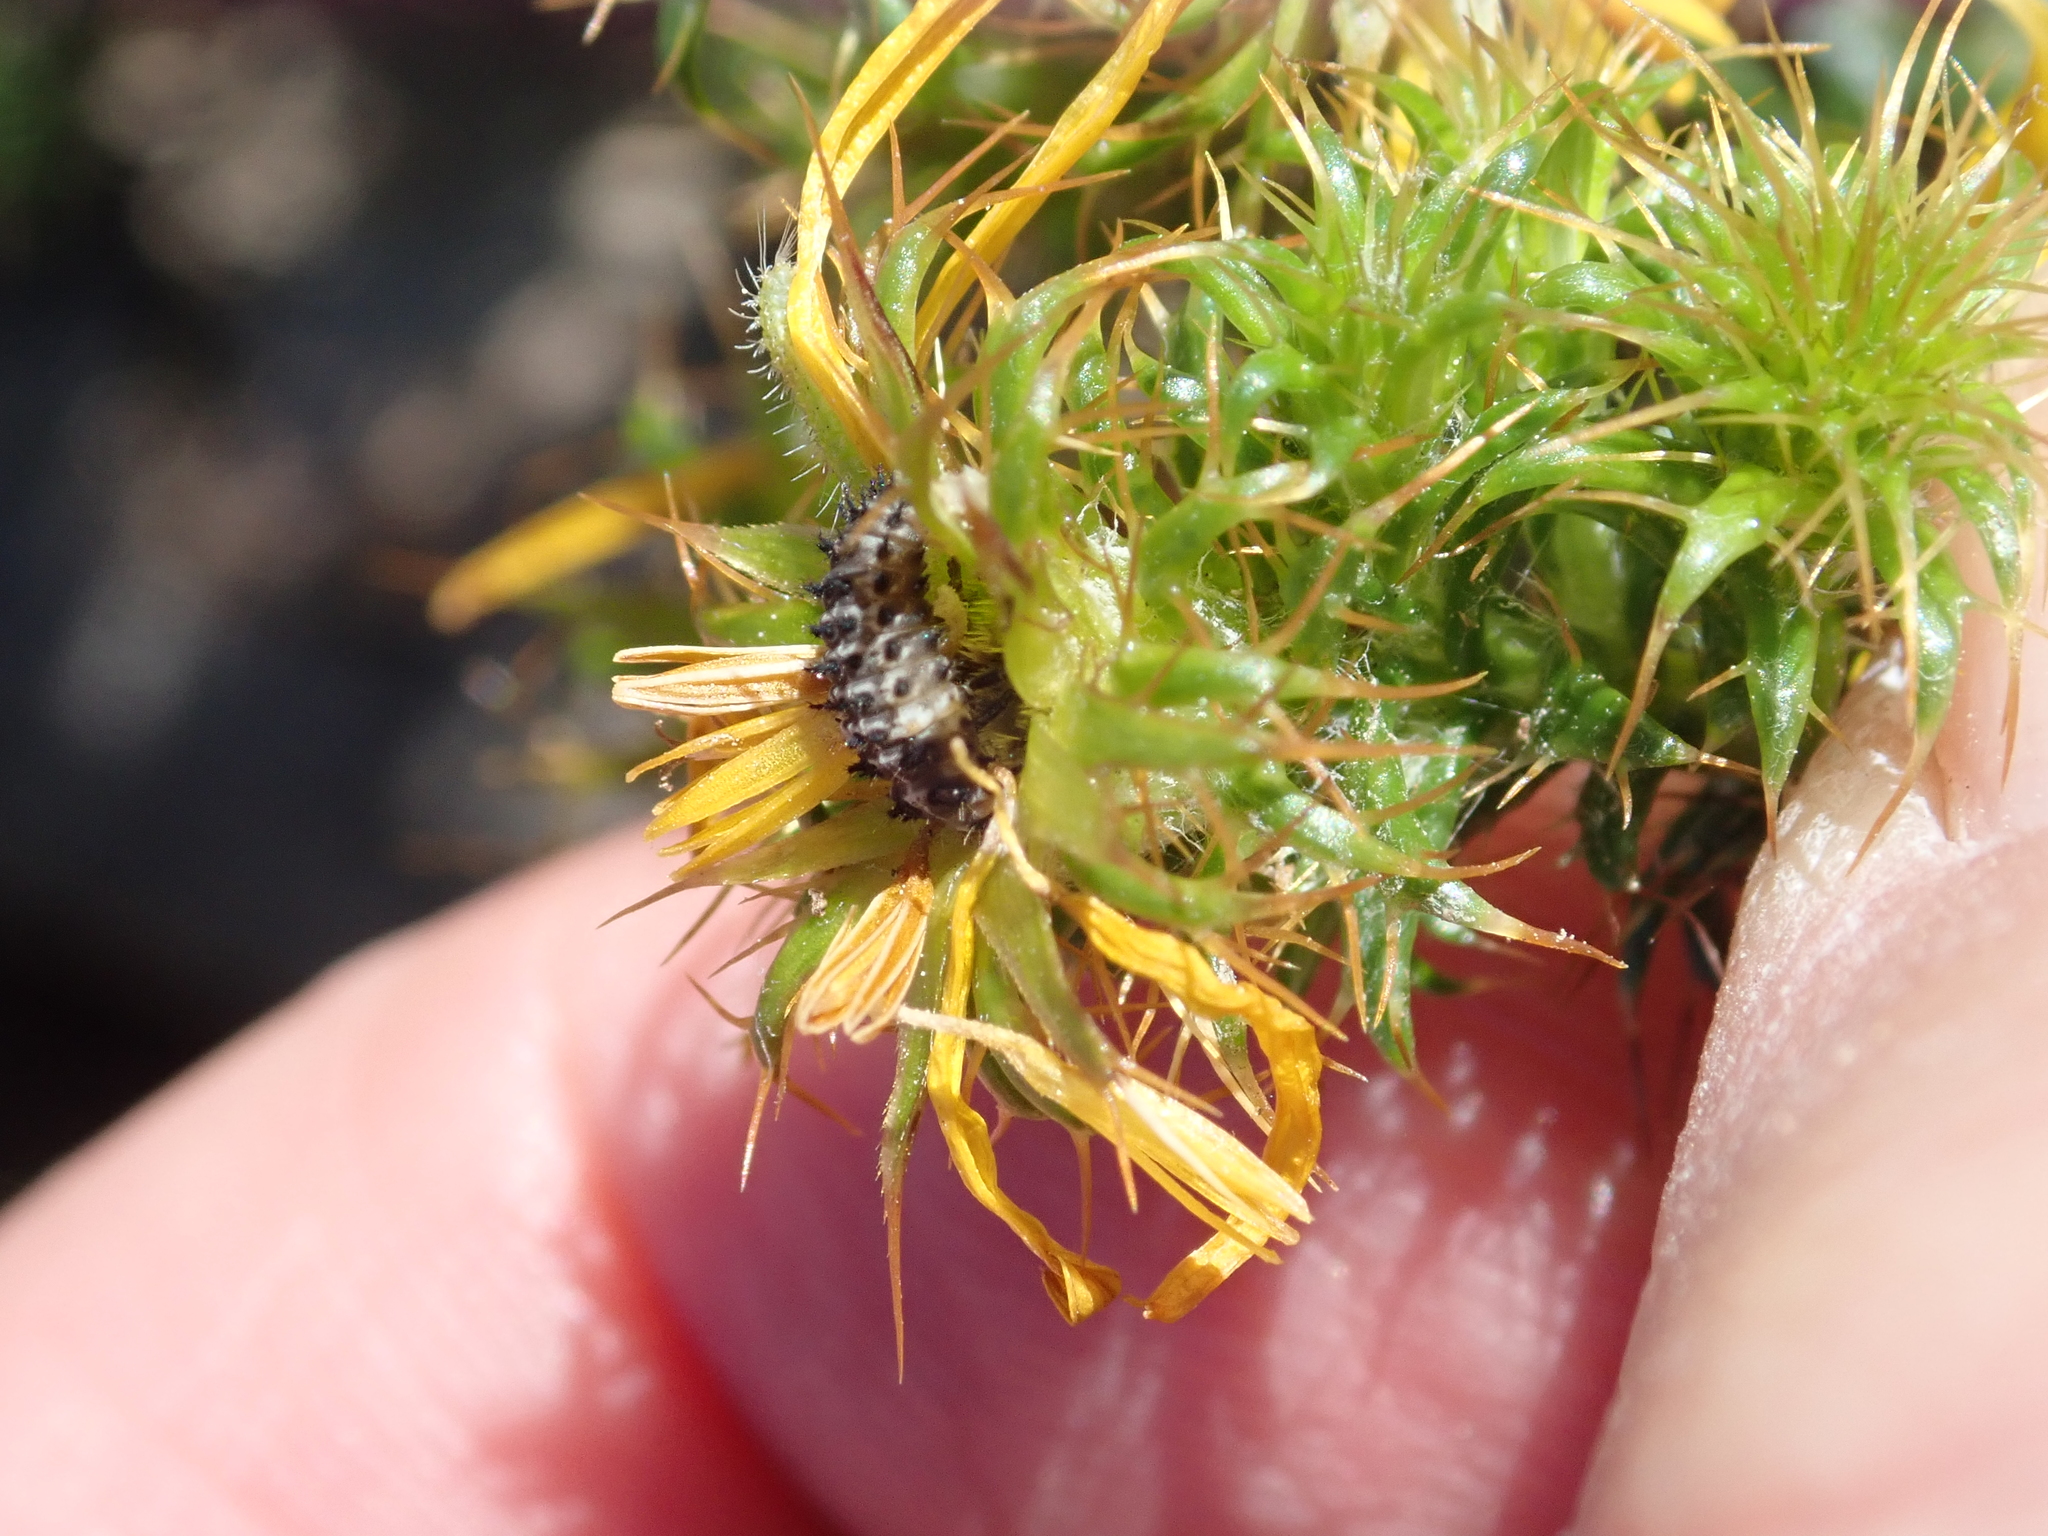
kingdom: Plantae
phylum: Tracheophyta
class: Magnoliopsida
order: Asterales
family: Asteraceae
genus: Cullumia
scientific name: Cullumia decurrens
